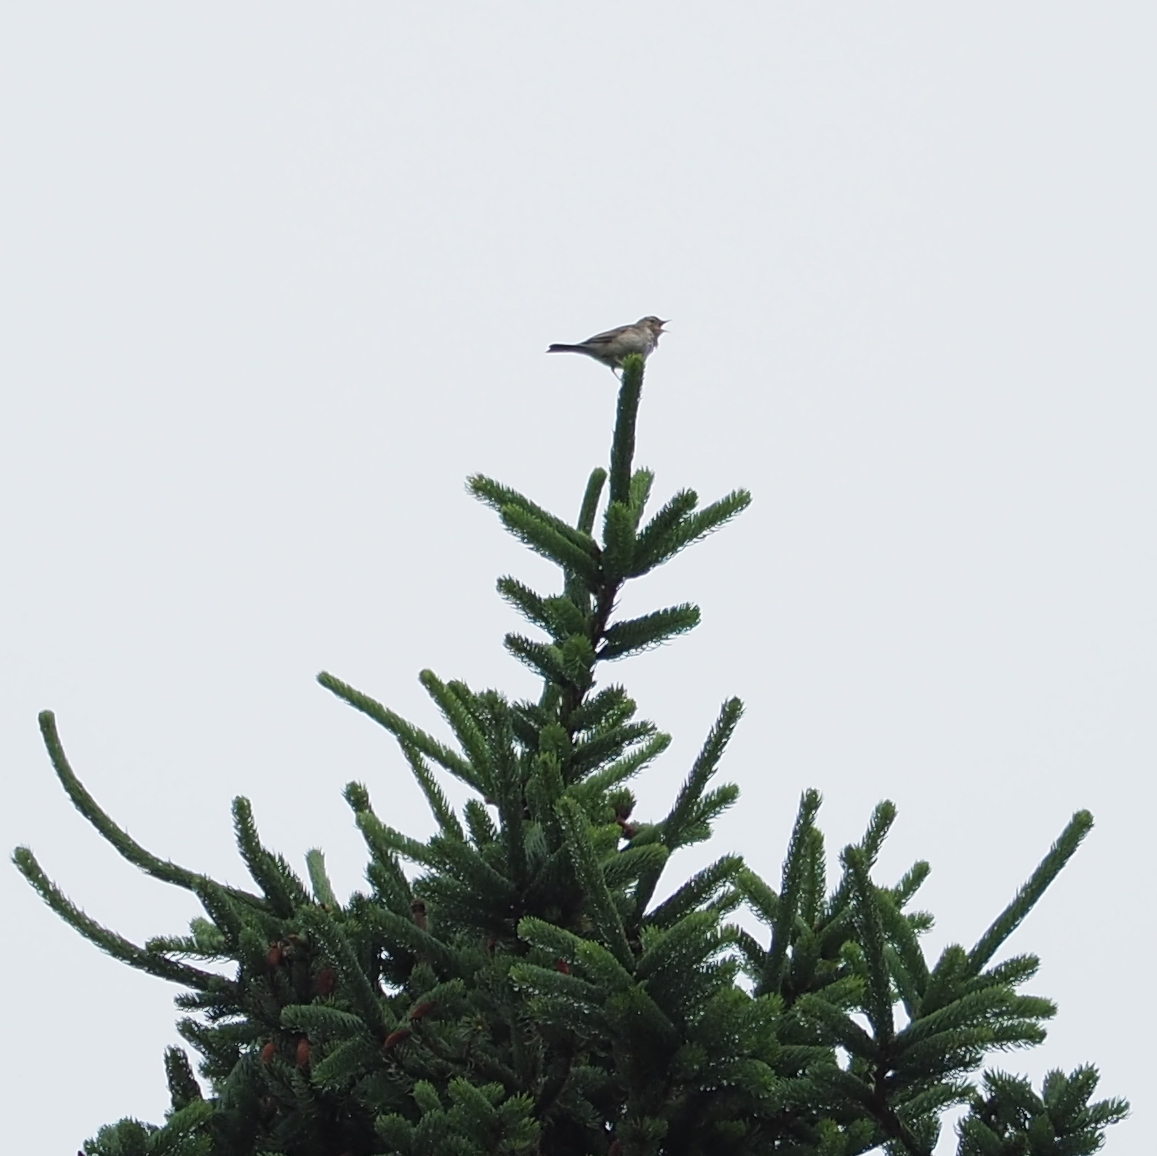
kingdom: Animalia
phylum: Chordata
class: Aves
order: Passeriformes
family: Motacillidae
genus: Anthus
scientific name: Anthus trivialis
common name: Tree pipit
